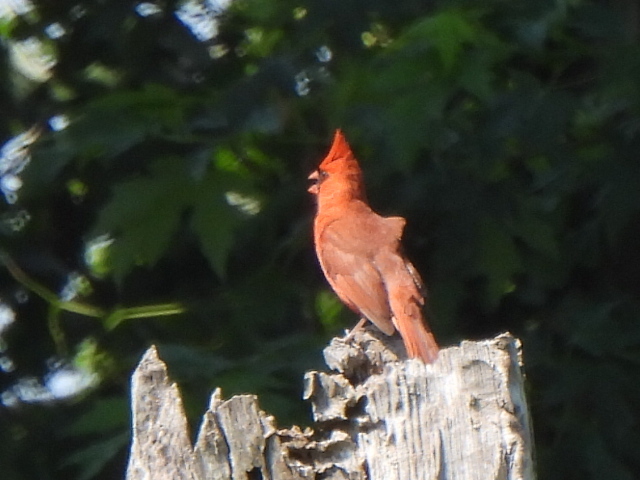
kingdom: Animalia
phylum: Chordata
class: Aves
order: Passeriformes
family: Cardinalidae
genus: Cardinalis
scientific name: Cardinalis cardinalis
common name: Northern cardinal
